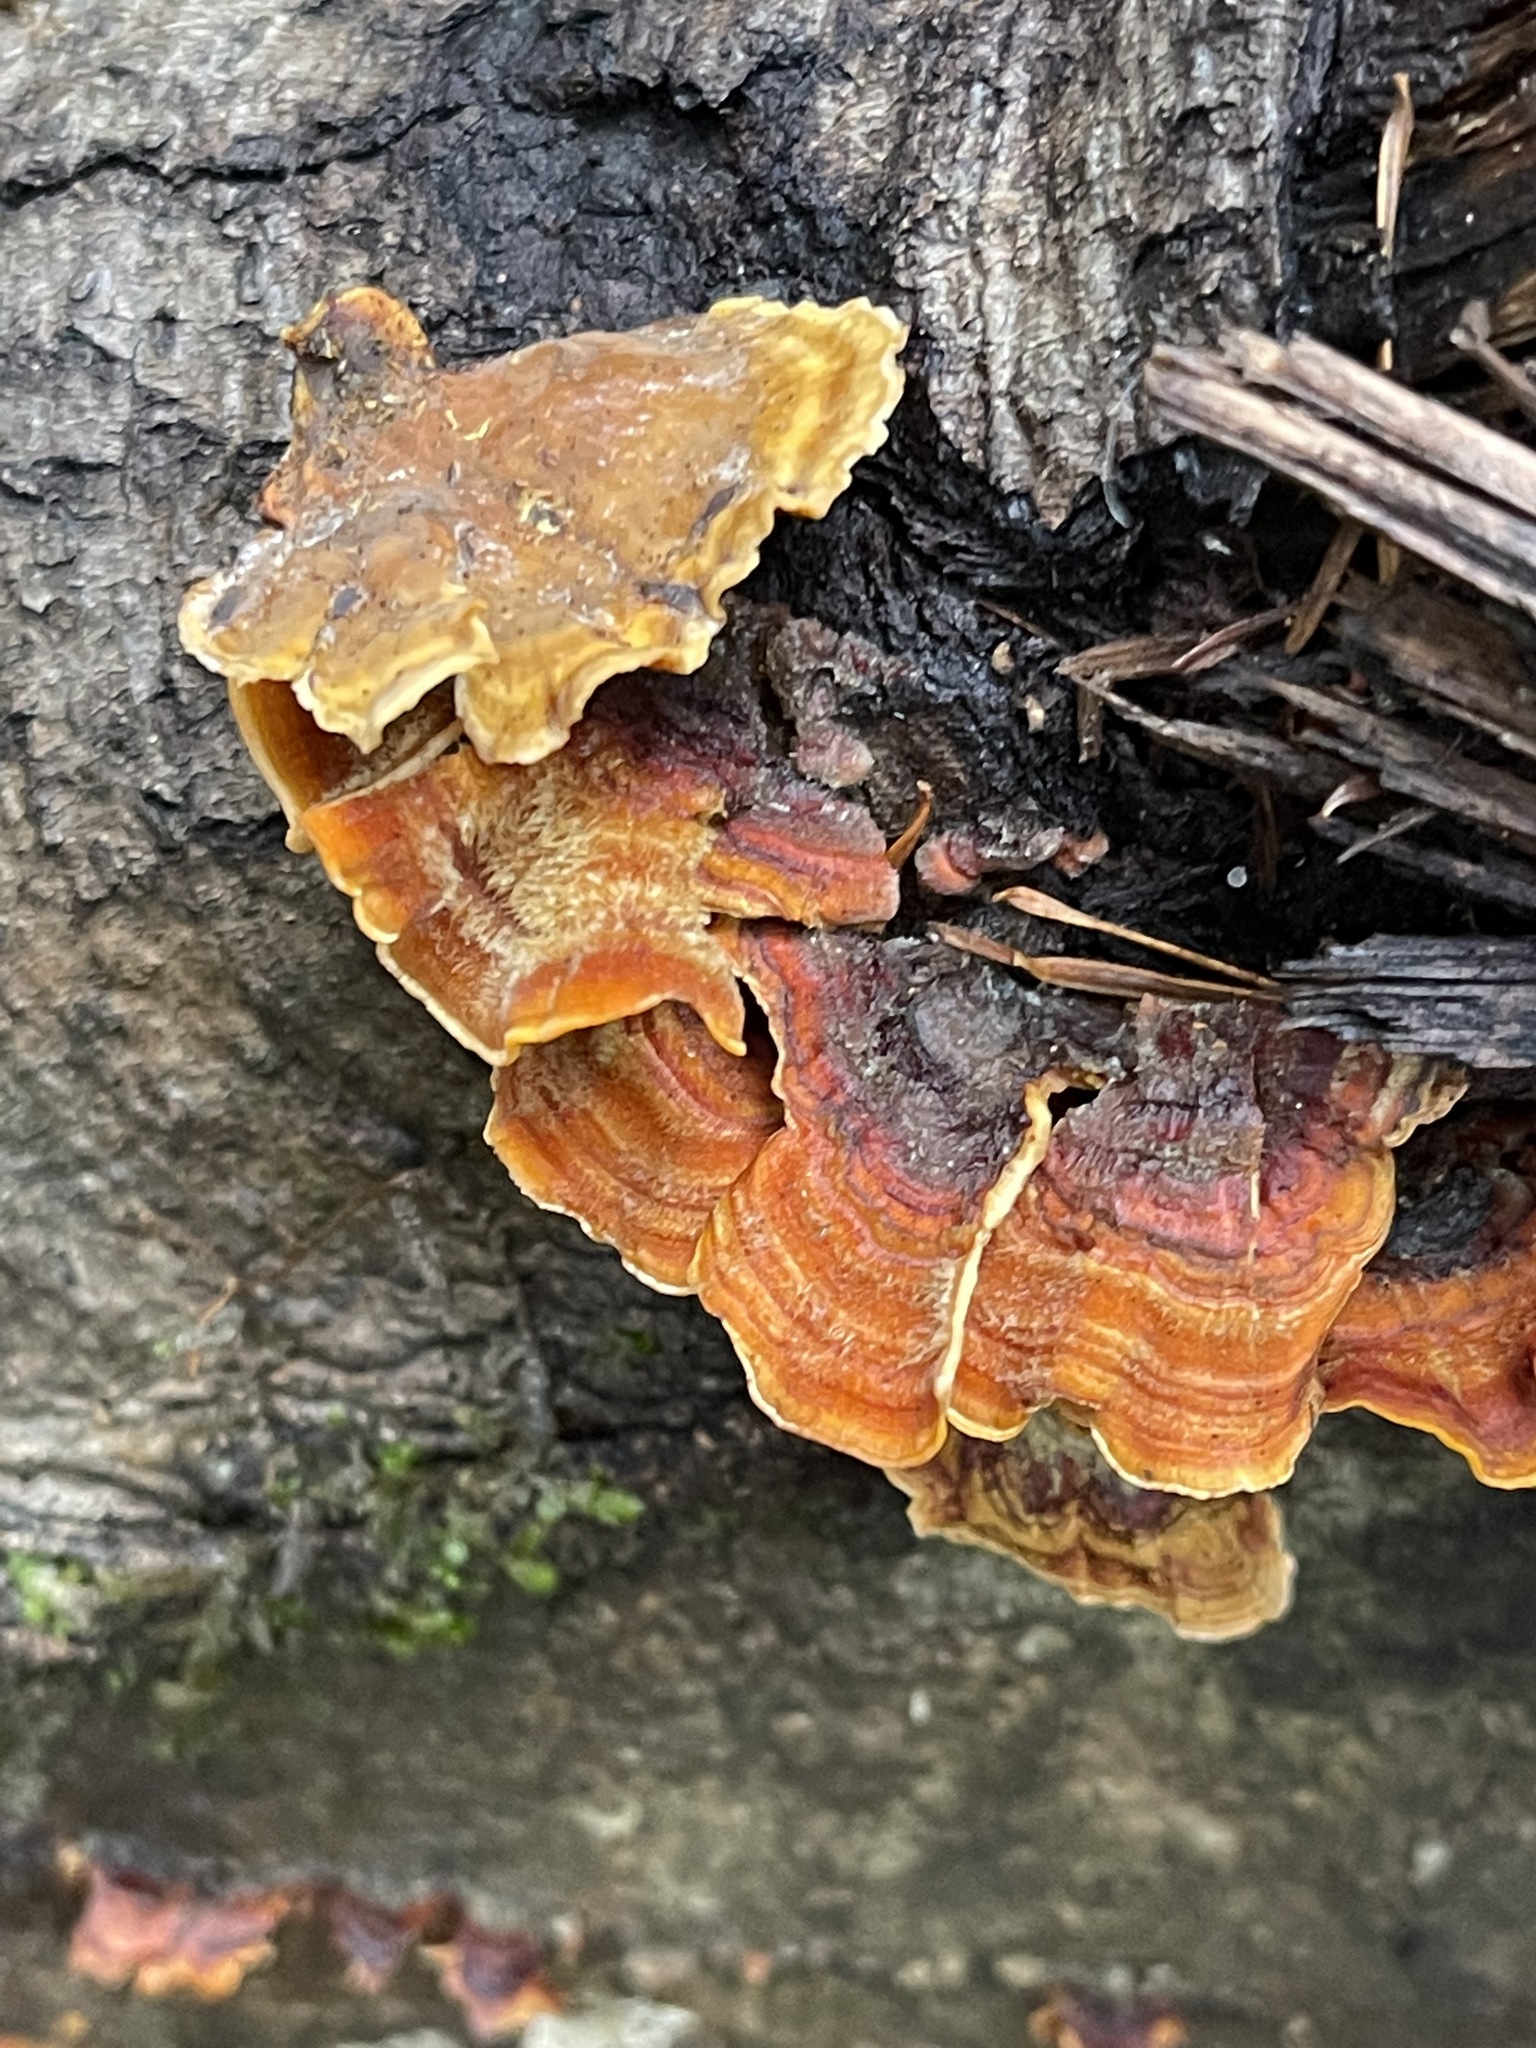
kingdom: Fungi
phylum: Basidiomycota
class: Agaricomycetes
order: Russulales
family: Stereaceae
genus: Stereum
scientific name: Stereum hirsutum
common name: Hairy curtain crust
